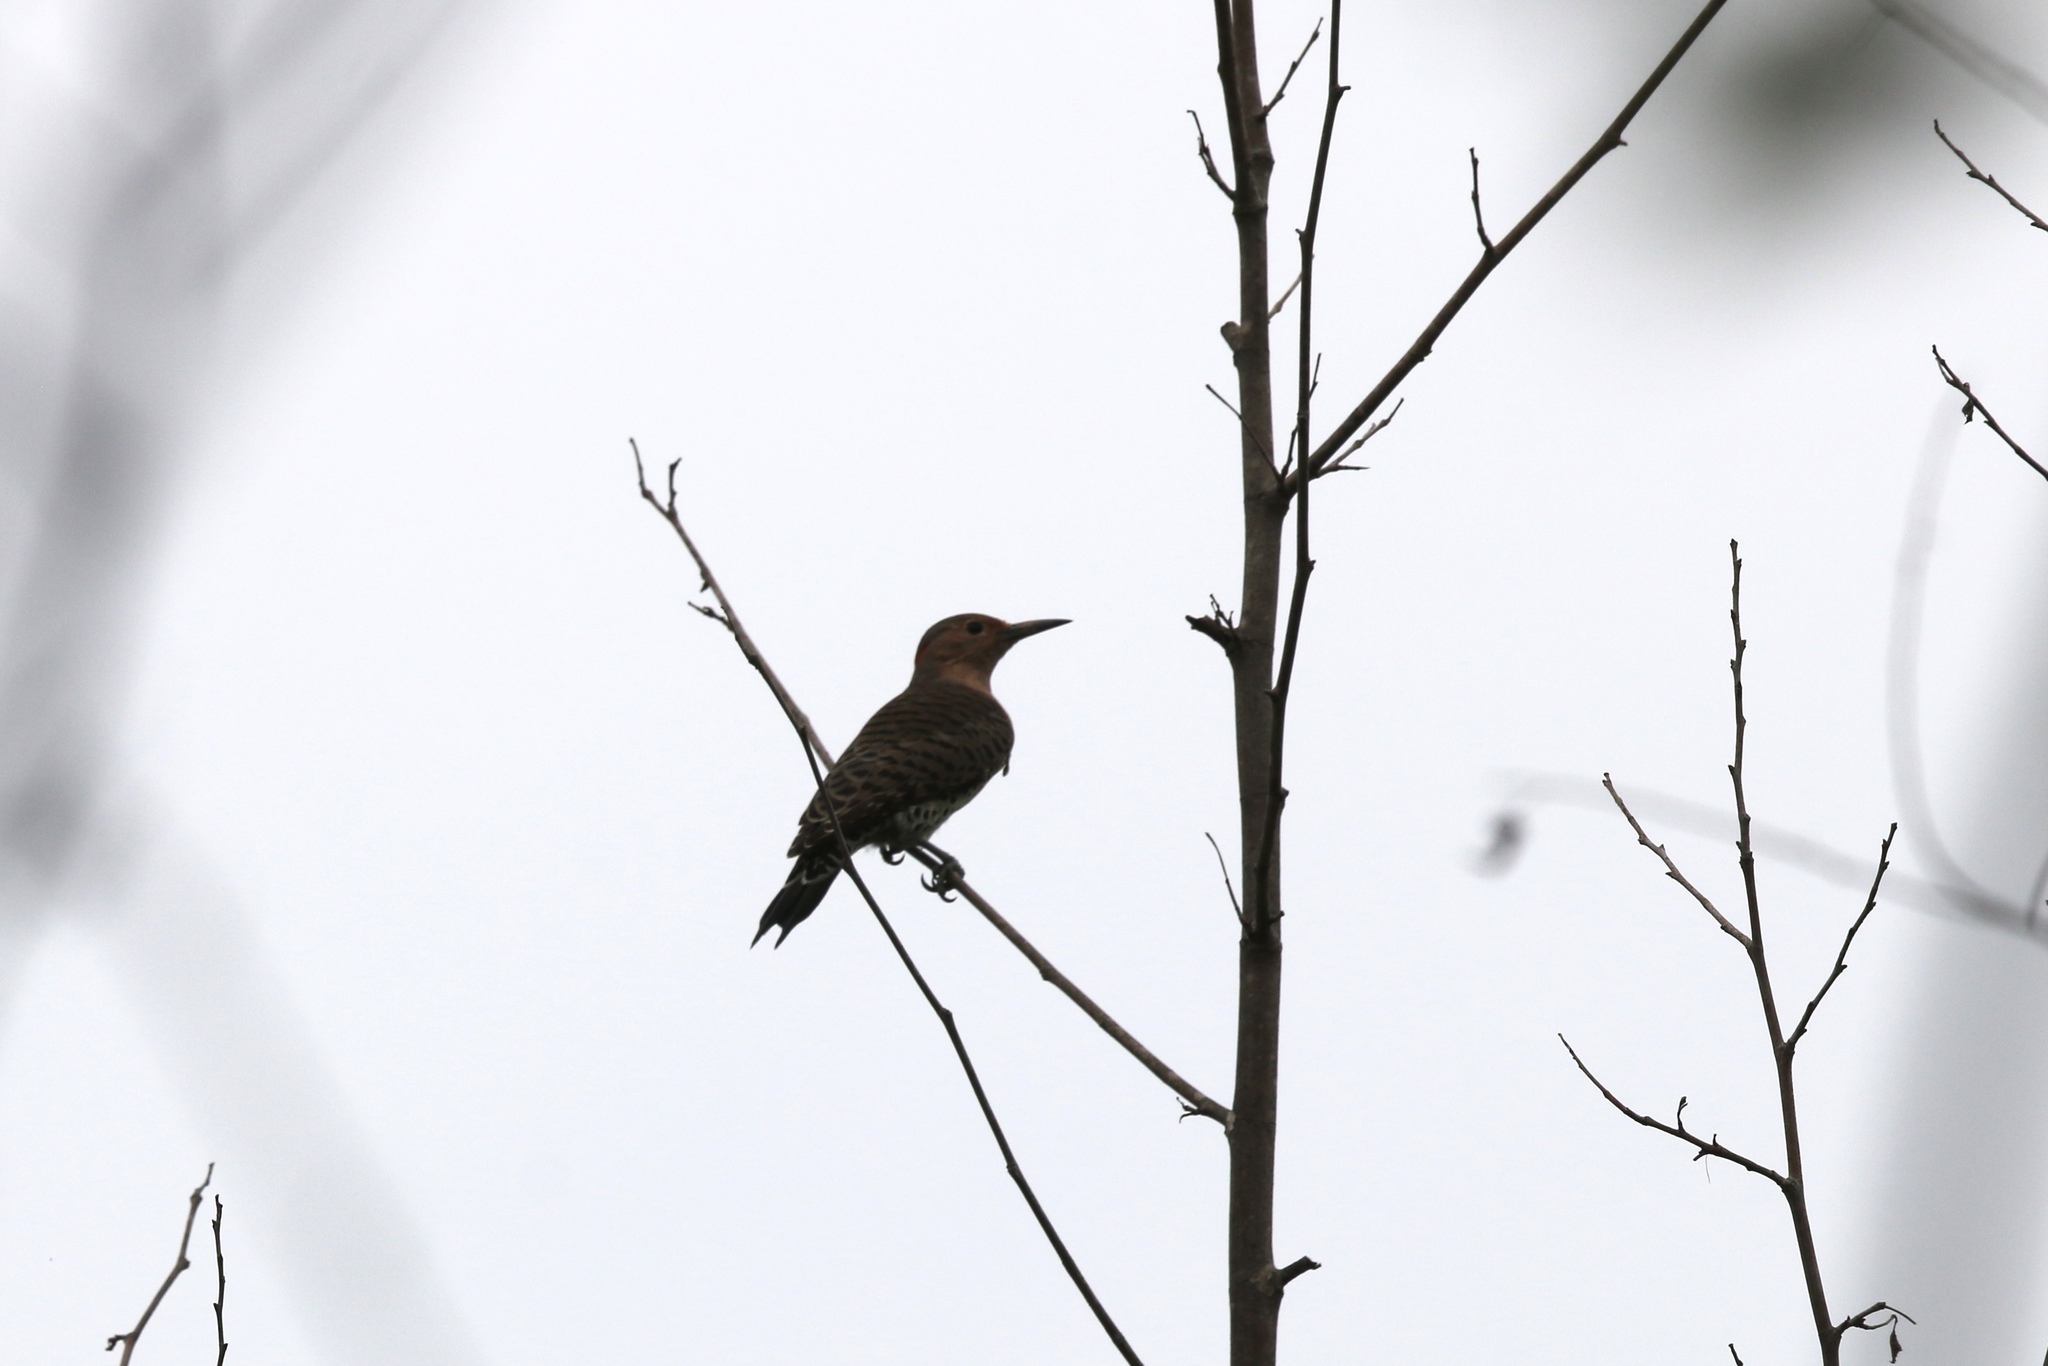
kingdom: Animalia
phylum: Chordata
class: Aves
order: Piciformes
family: Picidae
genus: Colaptes
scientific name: Colaptes auratus
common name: Northern flicker
